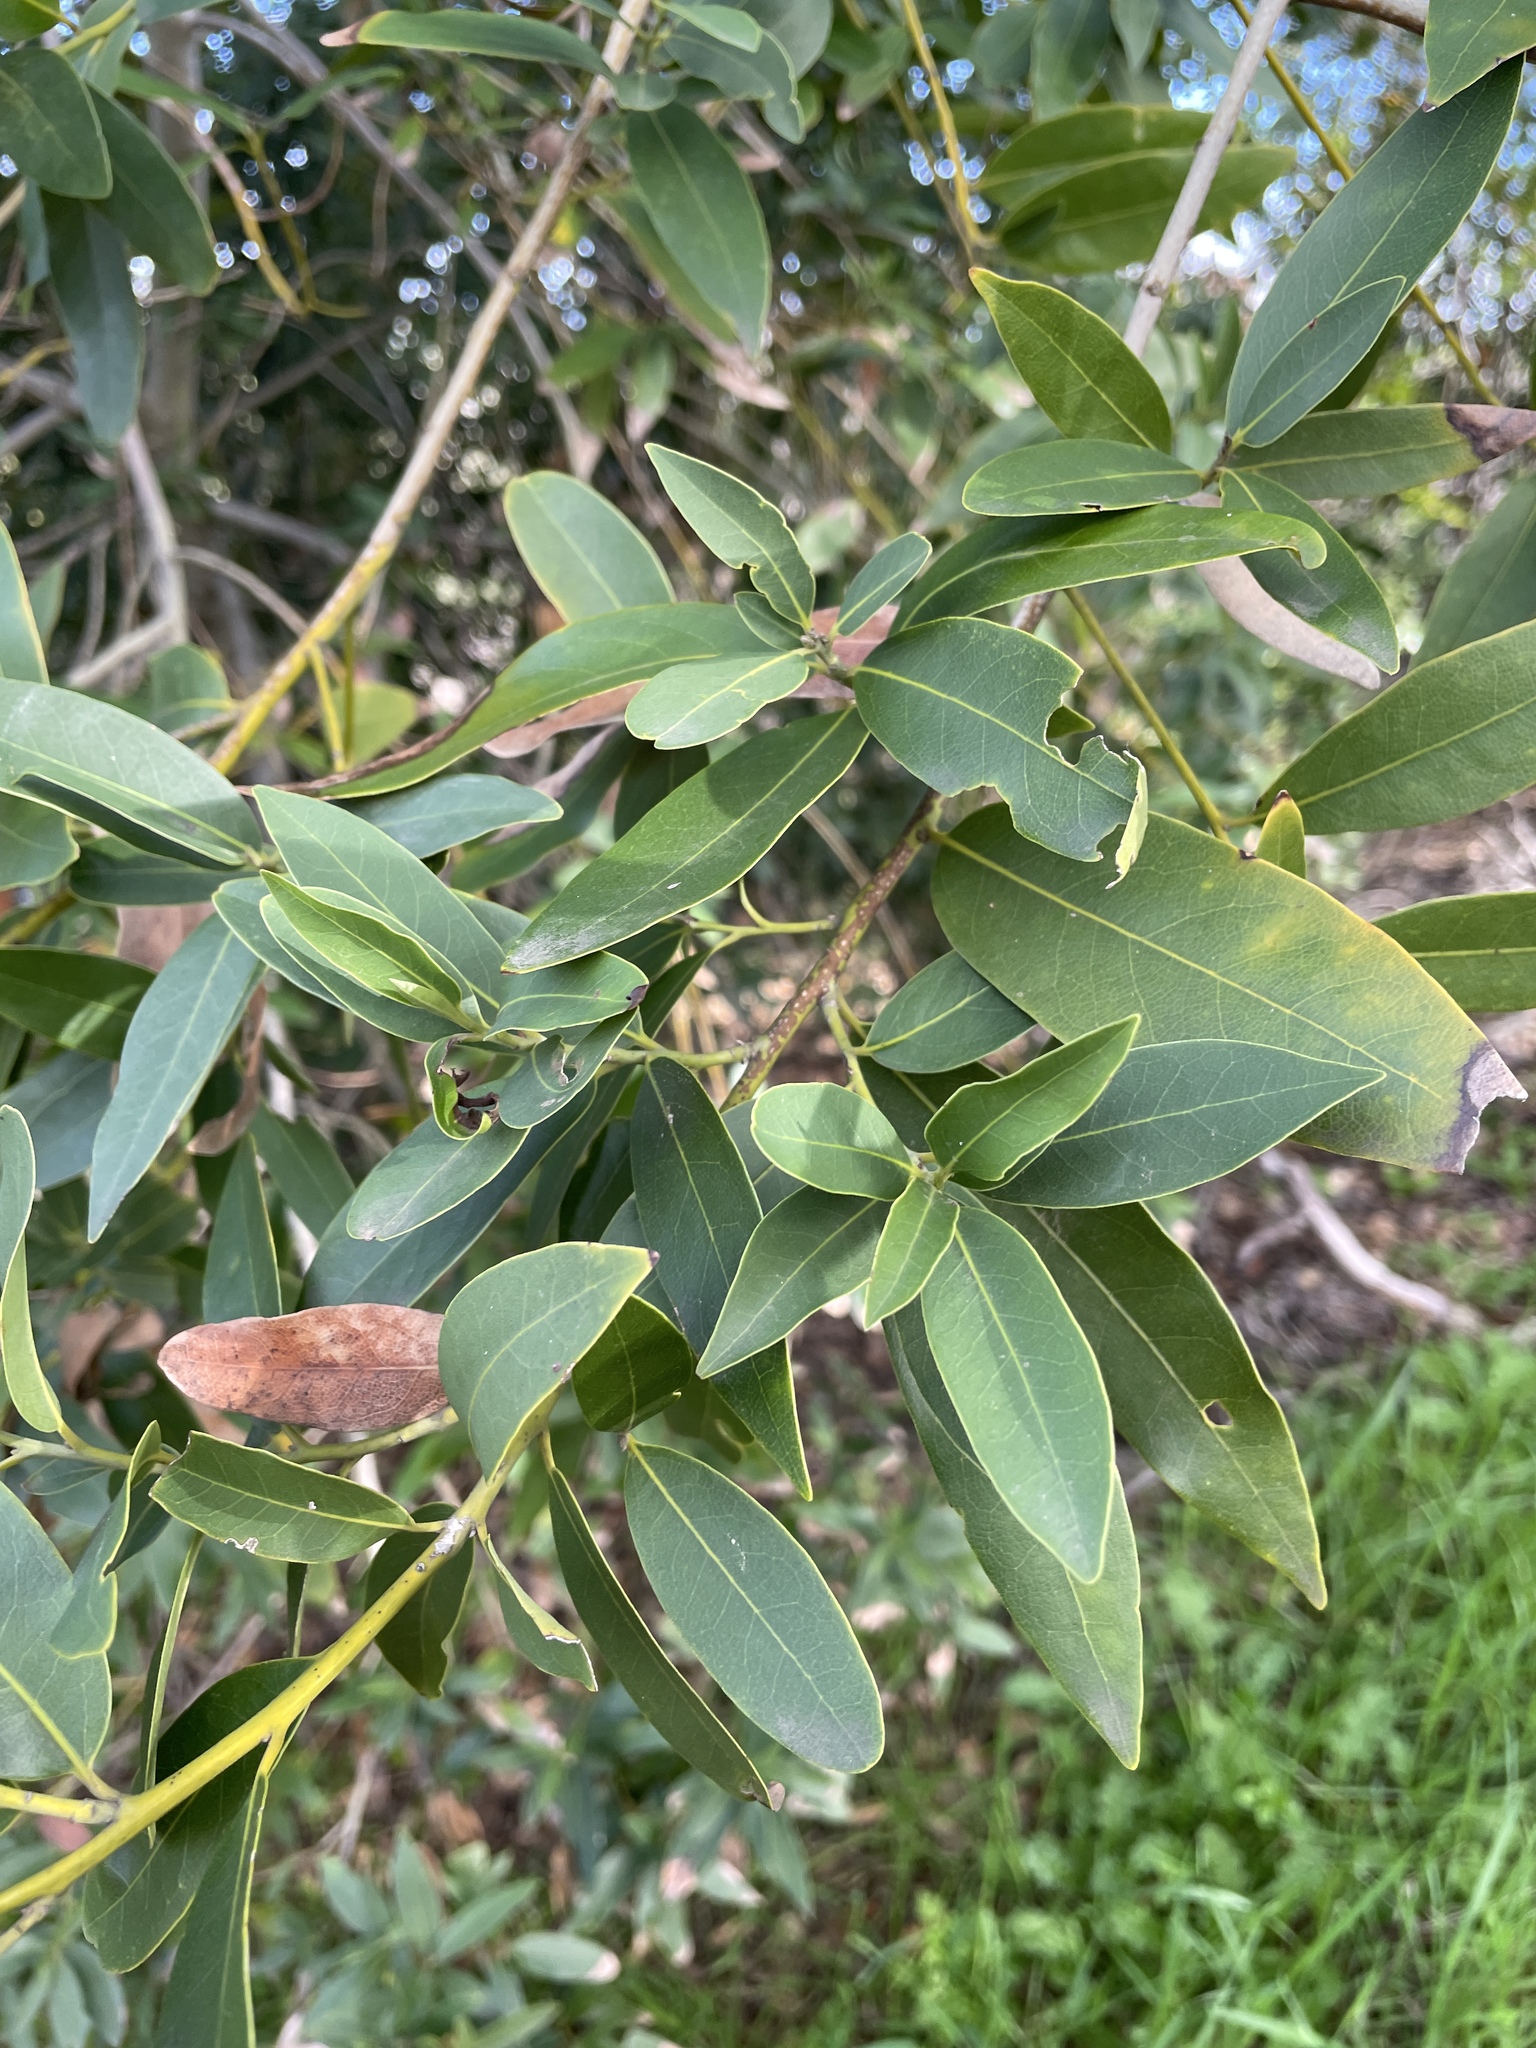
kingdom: Plantae
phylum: Tracheophyta
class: Magnoliopsida
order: Laurales
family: Lauraceae
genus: Umbellularia
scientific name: Umbellularia californica
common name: California bay
